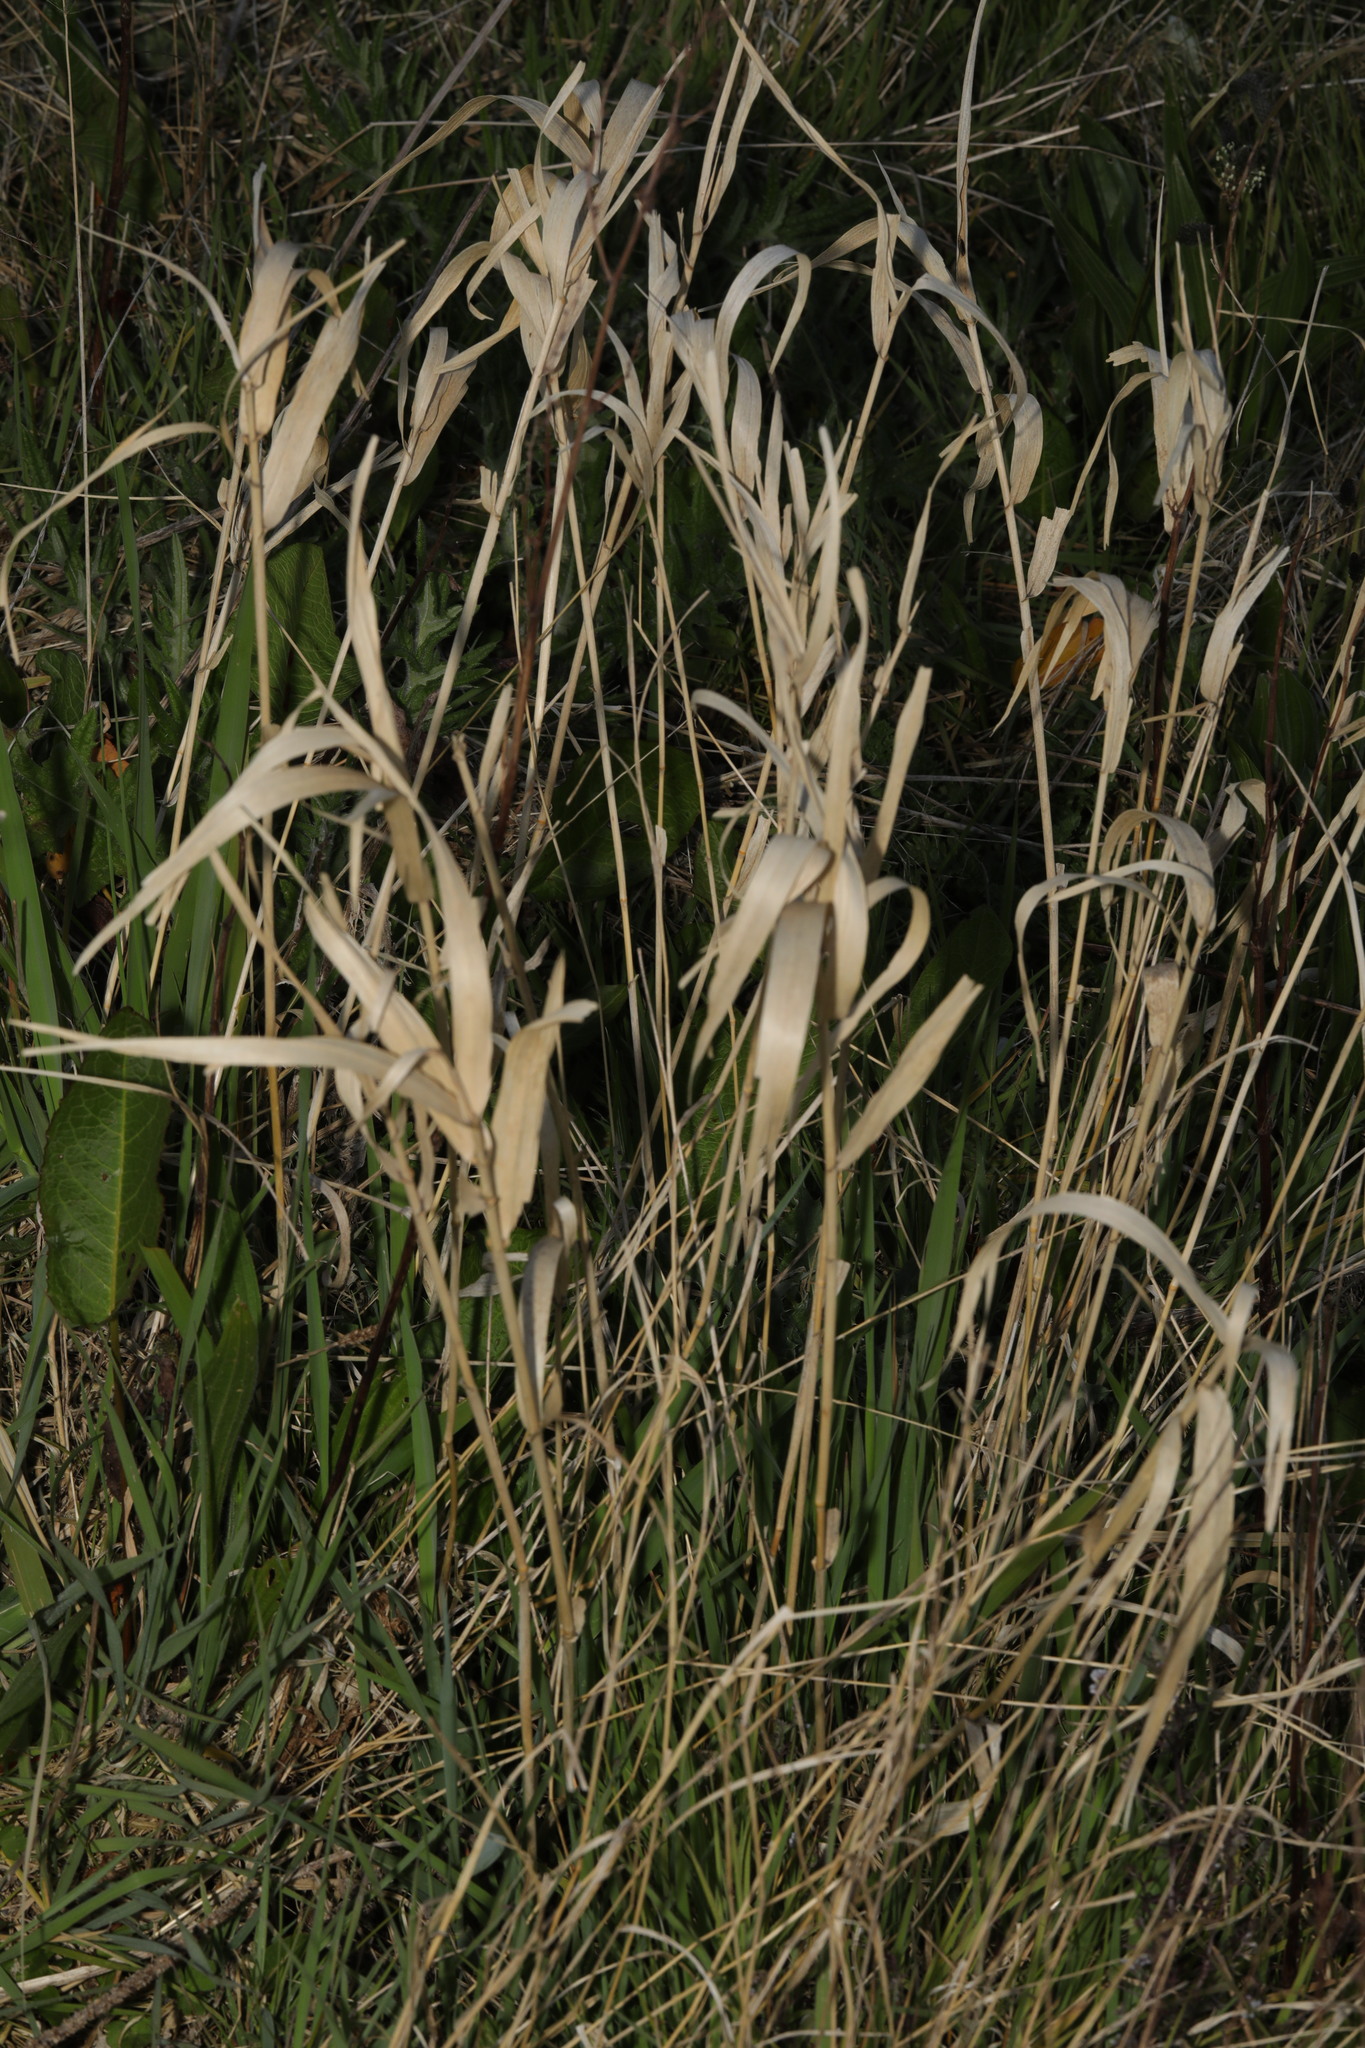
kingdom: Plantae
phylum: Tracheophyta
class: Liliopsida
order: Poales
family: Poaceae
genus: Phalaris
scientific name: Phalaris arundinacea
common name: Reed canary-grass
